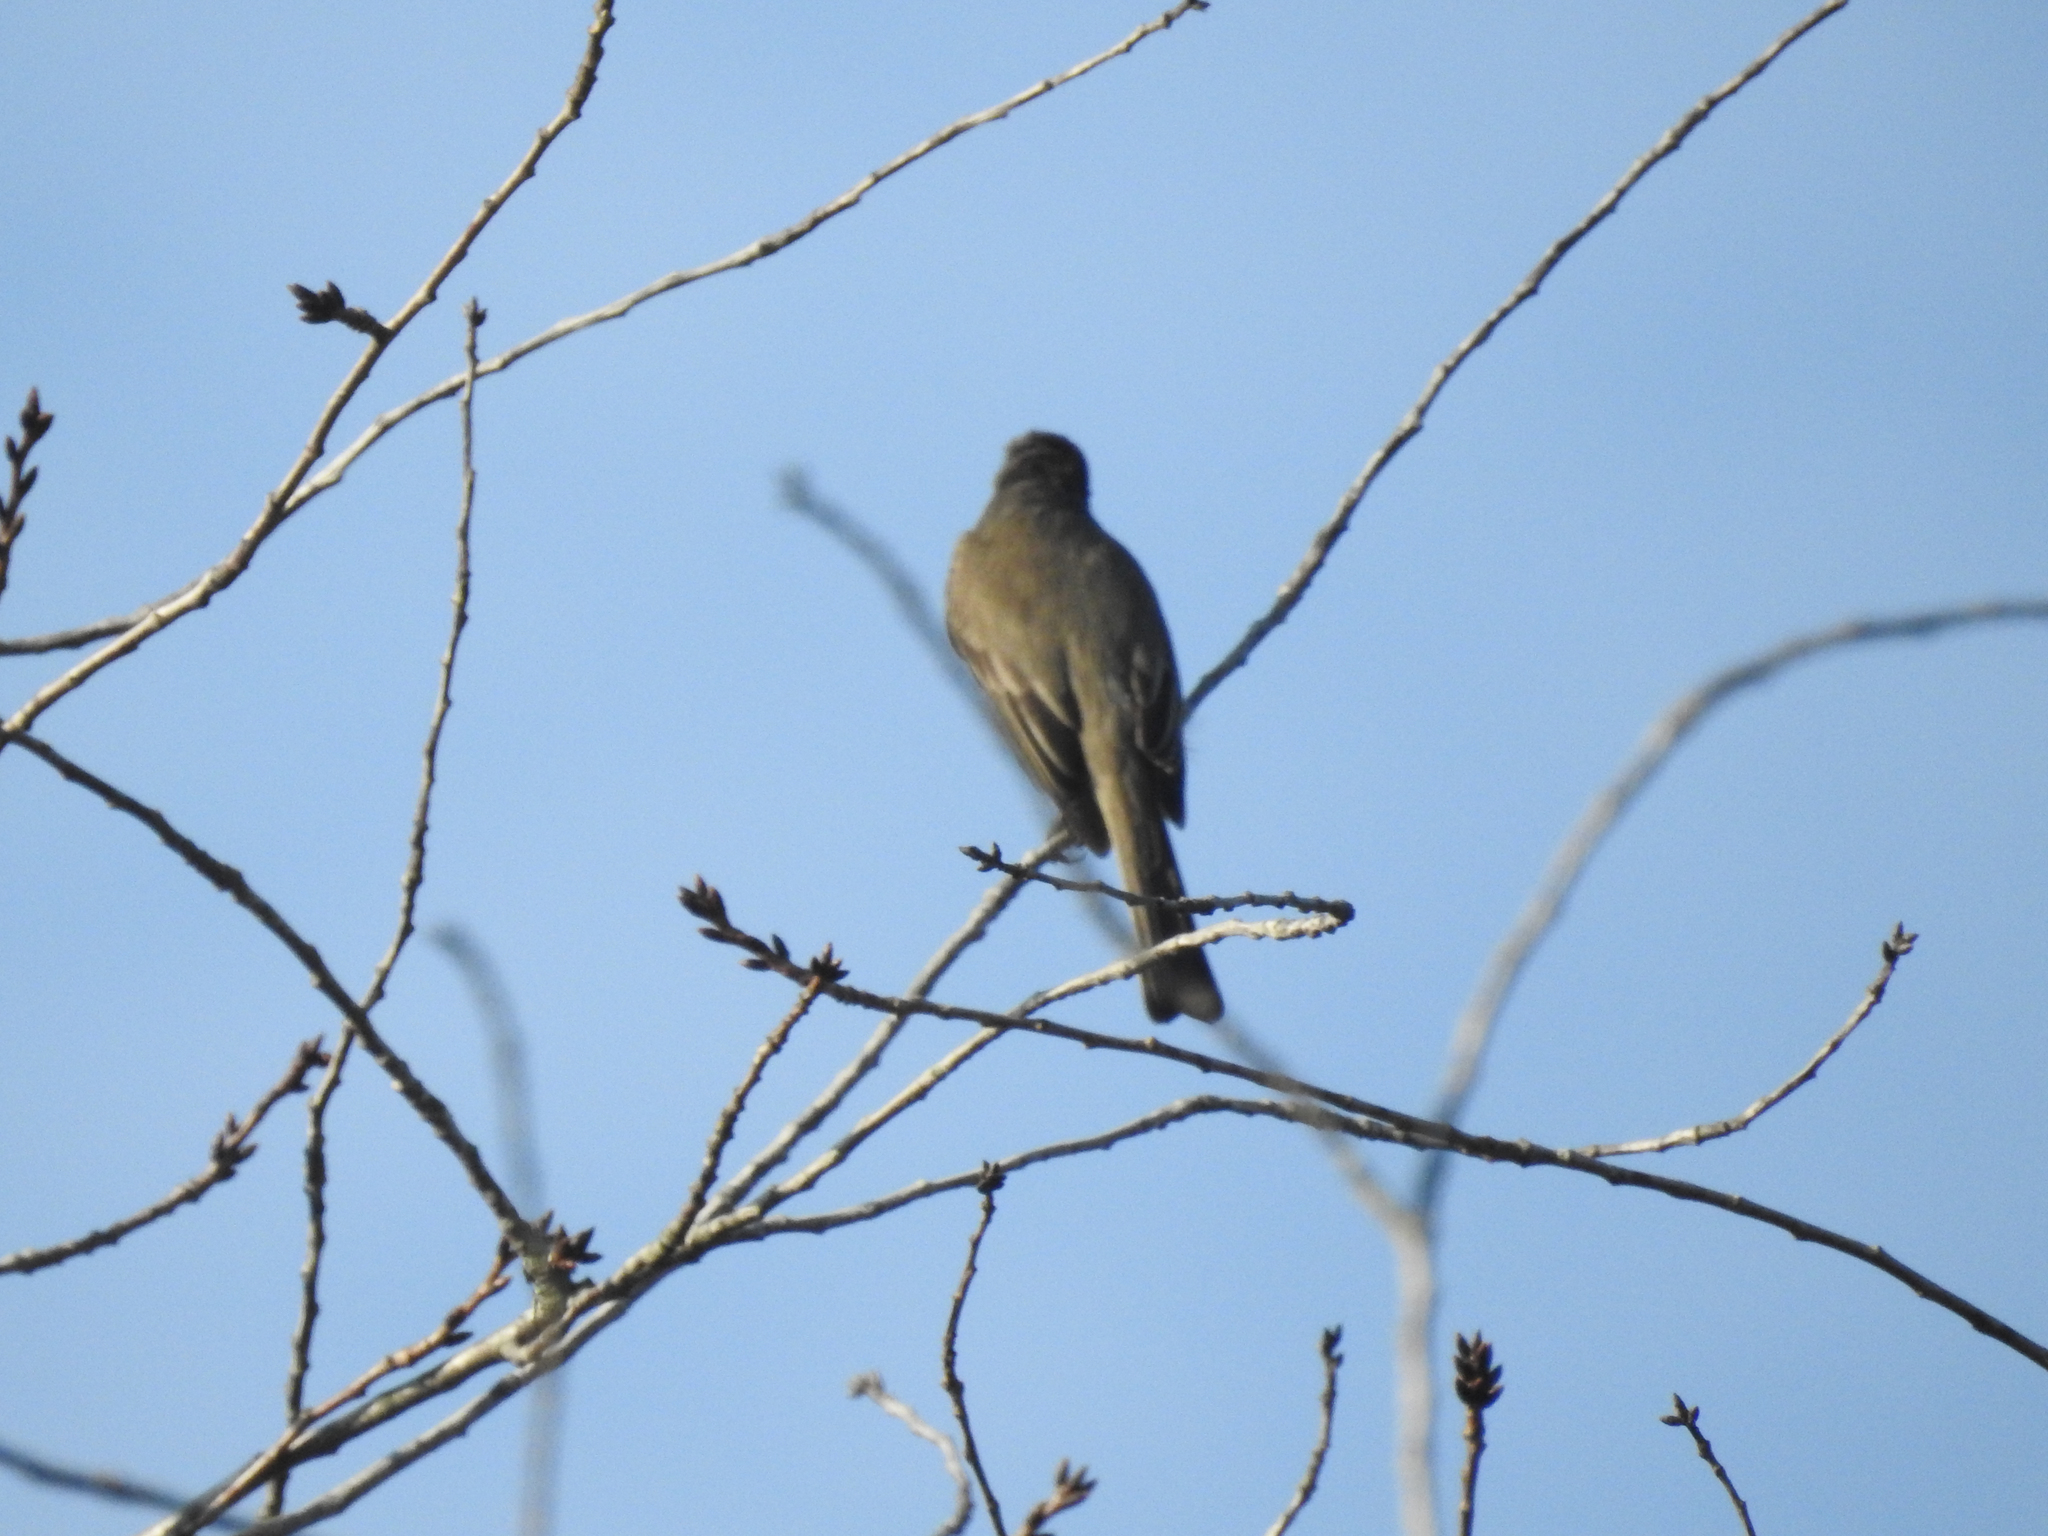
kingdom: Animalia
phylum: Chordata
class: Aves
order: Passeriformes
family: Tyrannidae
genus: Sayornis
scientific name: Sayornis phoebe
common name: Eastern phoebe
